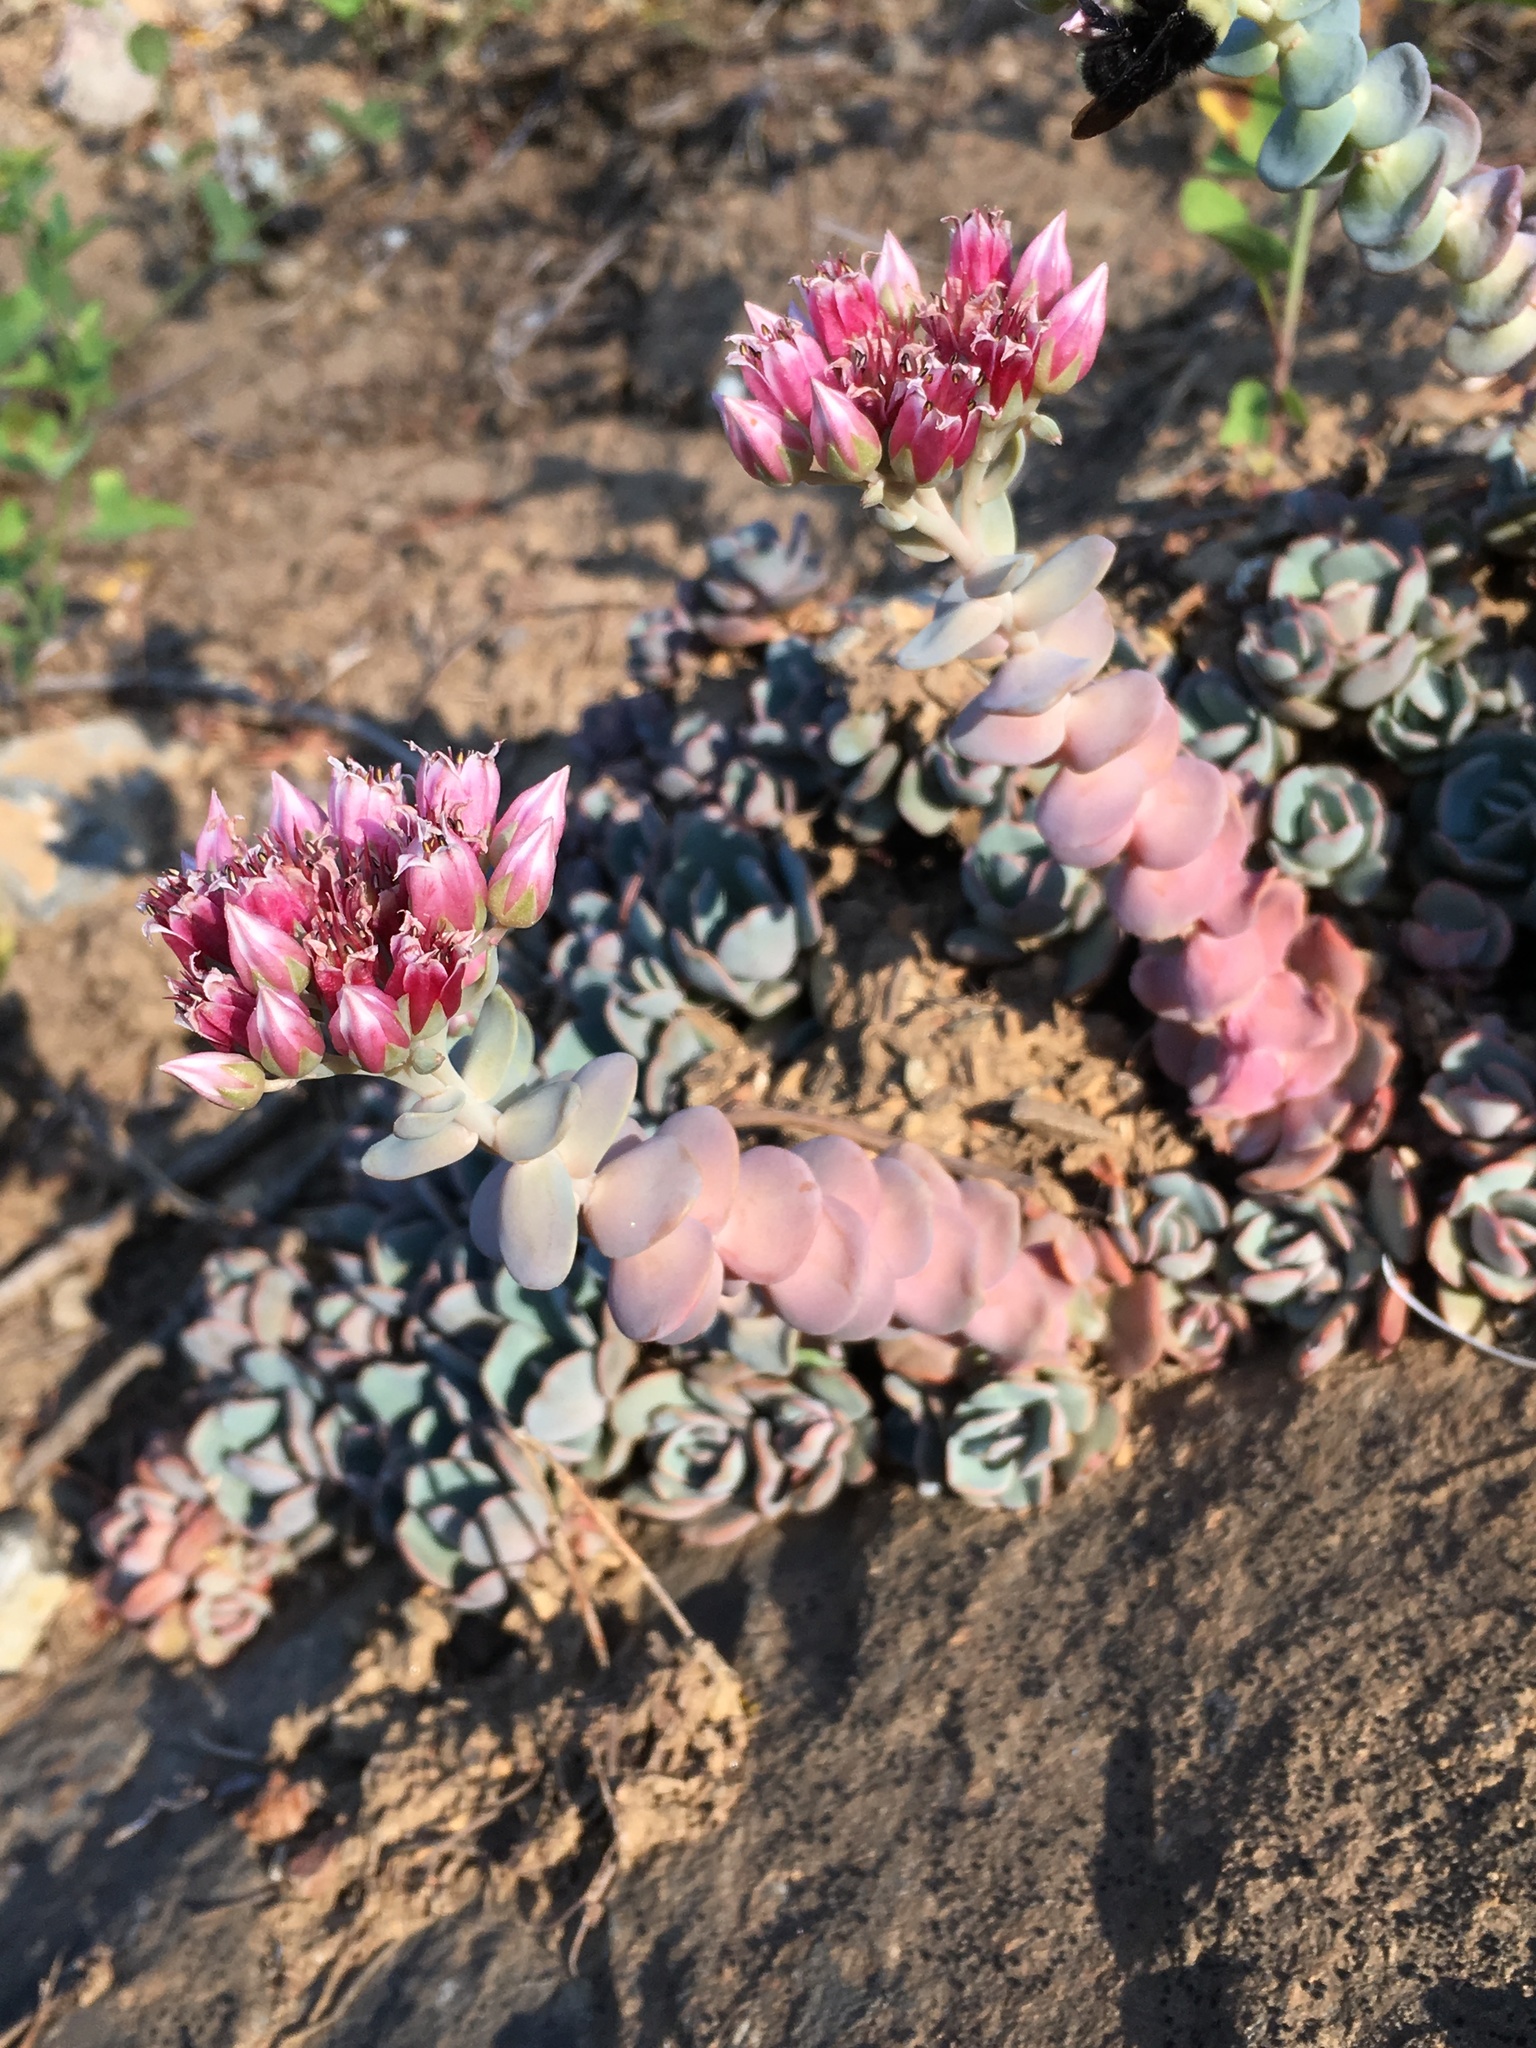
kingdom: Plantae
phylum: Tracheophyta
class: Magnoliopsida
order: Saxifragales
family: Crassulaceae
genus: Sedum
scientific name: Sedum laxum
